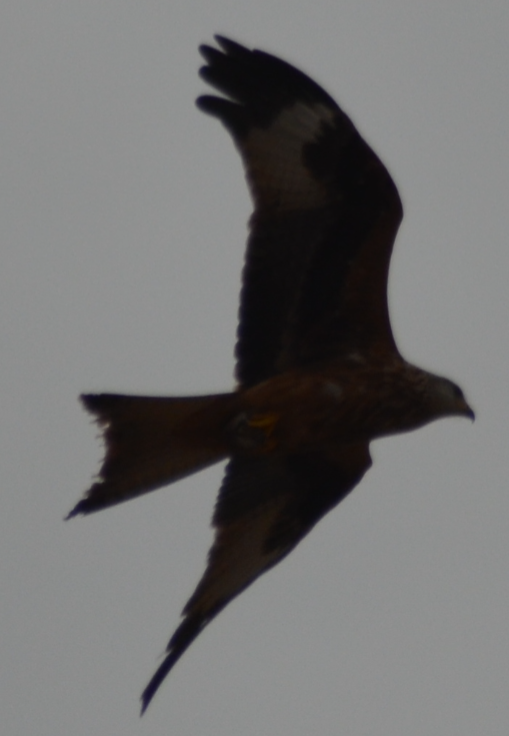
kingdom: Animalia
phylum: Chordata
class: Aves
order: Accipitriformes
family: Accipitridae
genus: Milvus
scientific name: Milvus milvus
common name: Red kite
